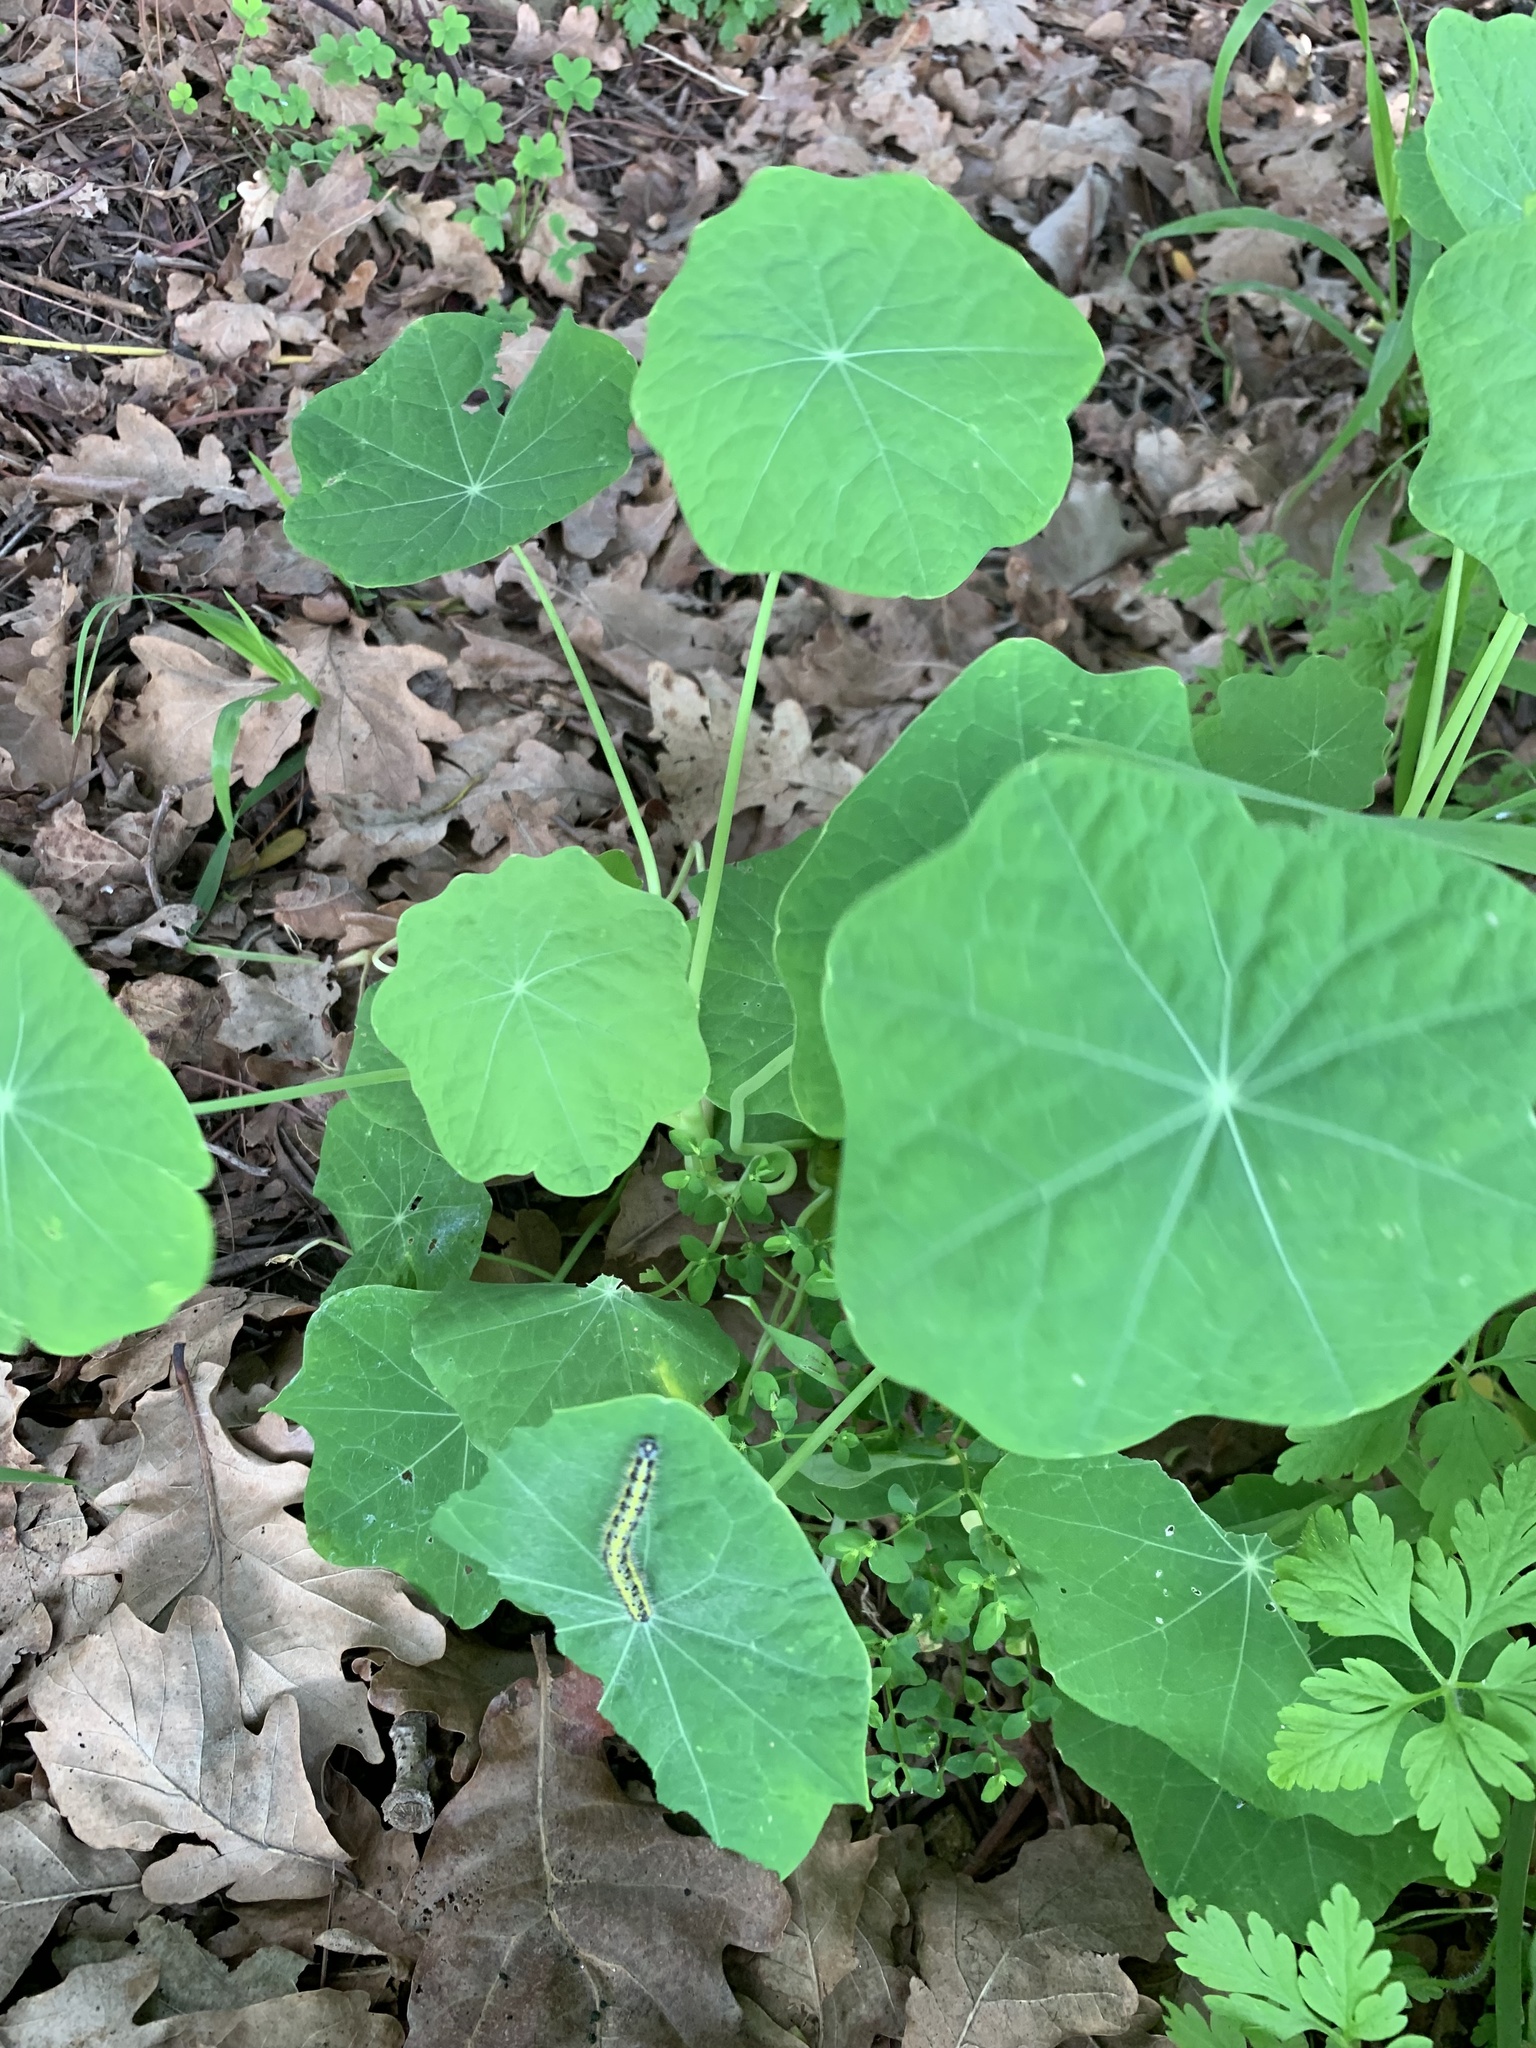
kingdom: Plantae
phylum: Tracheophyta
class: Magnoliopsida
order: Brassicales
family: Tropaeolaceae
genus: Tropaeolum
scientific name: Tropaeolum majus
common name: Nasturtium
